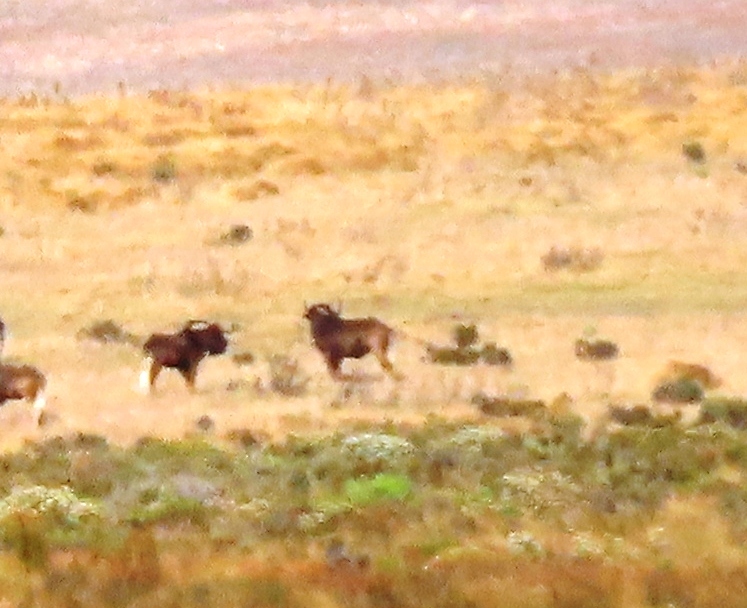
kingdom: Animalia
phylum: Chordata
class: Mammalia
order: Artiodactyla
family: Bovidae
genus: Connochaetes
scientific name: Connochaetes gnou
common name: Black wildebeest
